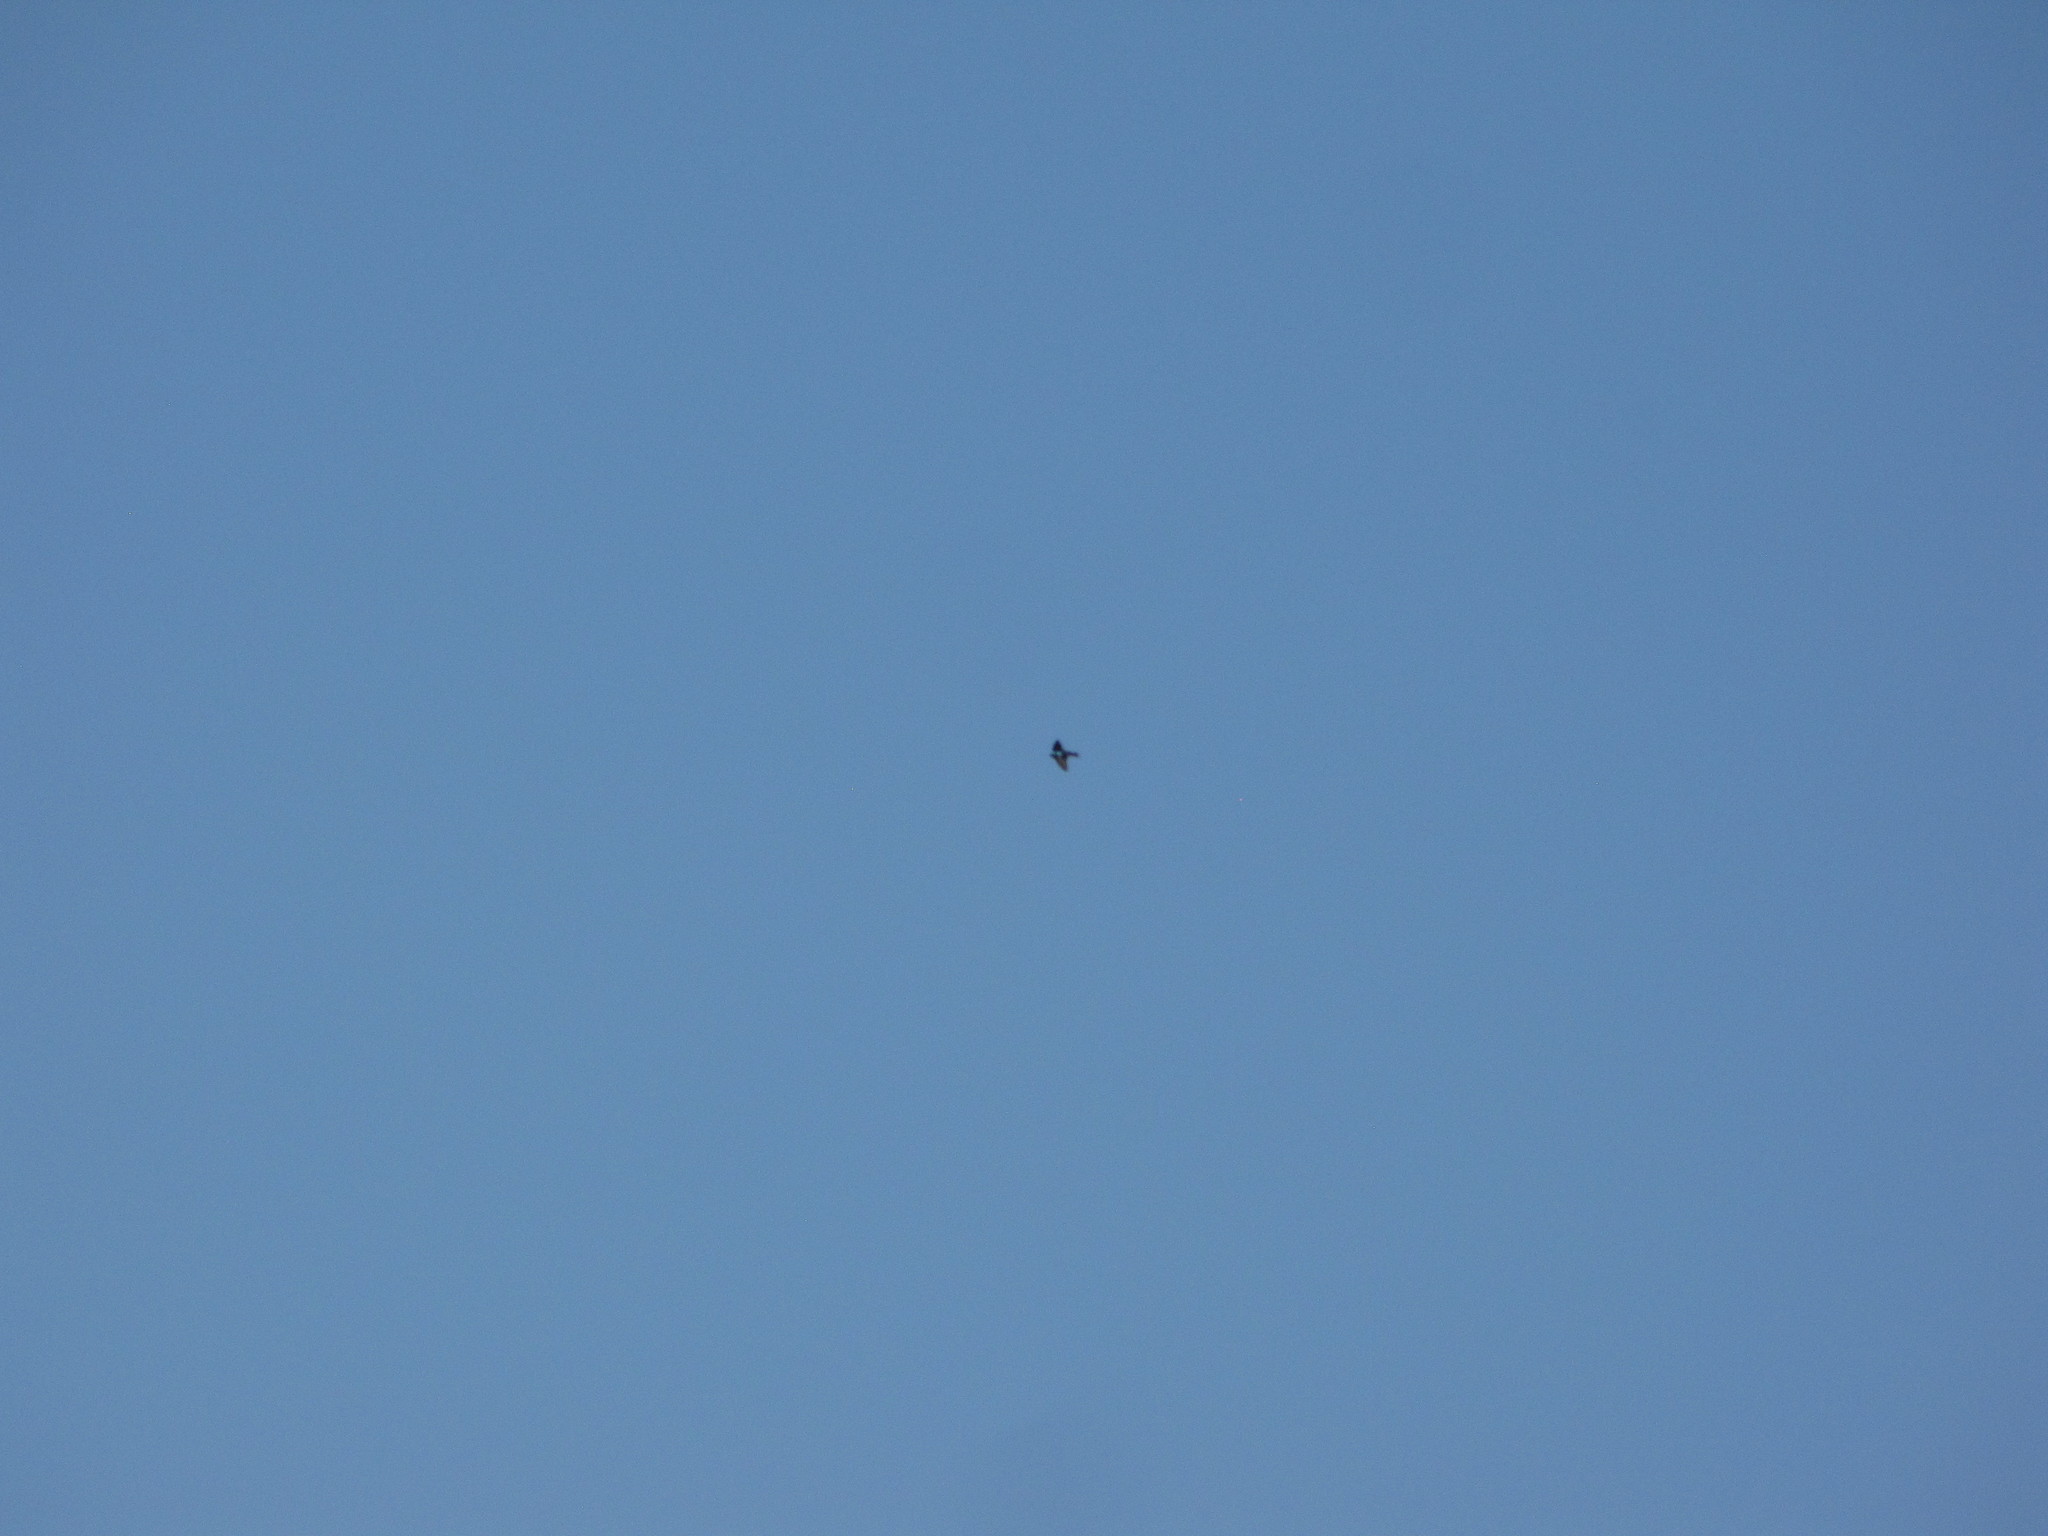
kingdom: Animalia
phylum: Chordata
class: Aves
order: Passeriformes
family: Hirundinidae
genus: Tachycineta
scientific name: Tachycineta bicolor
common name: Tree swallow
